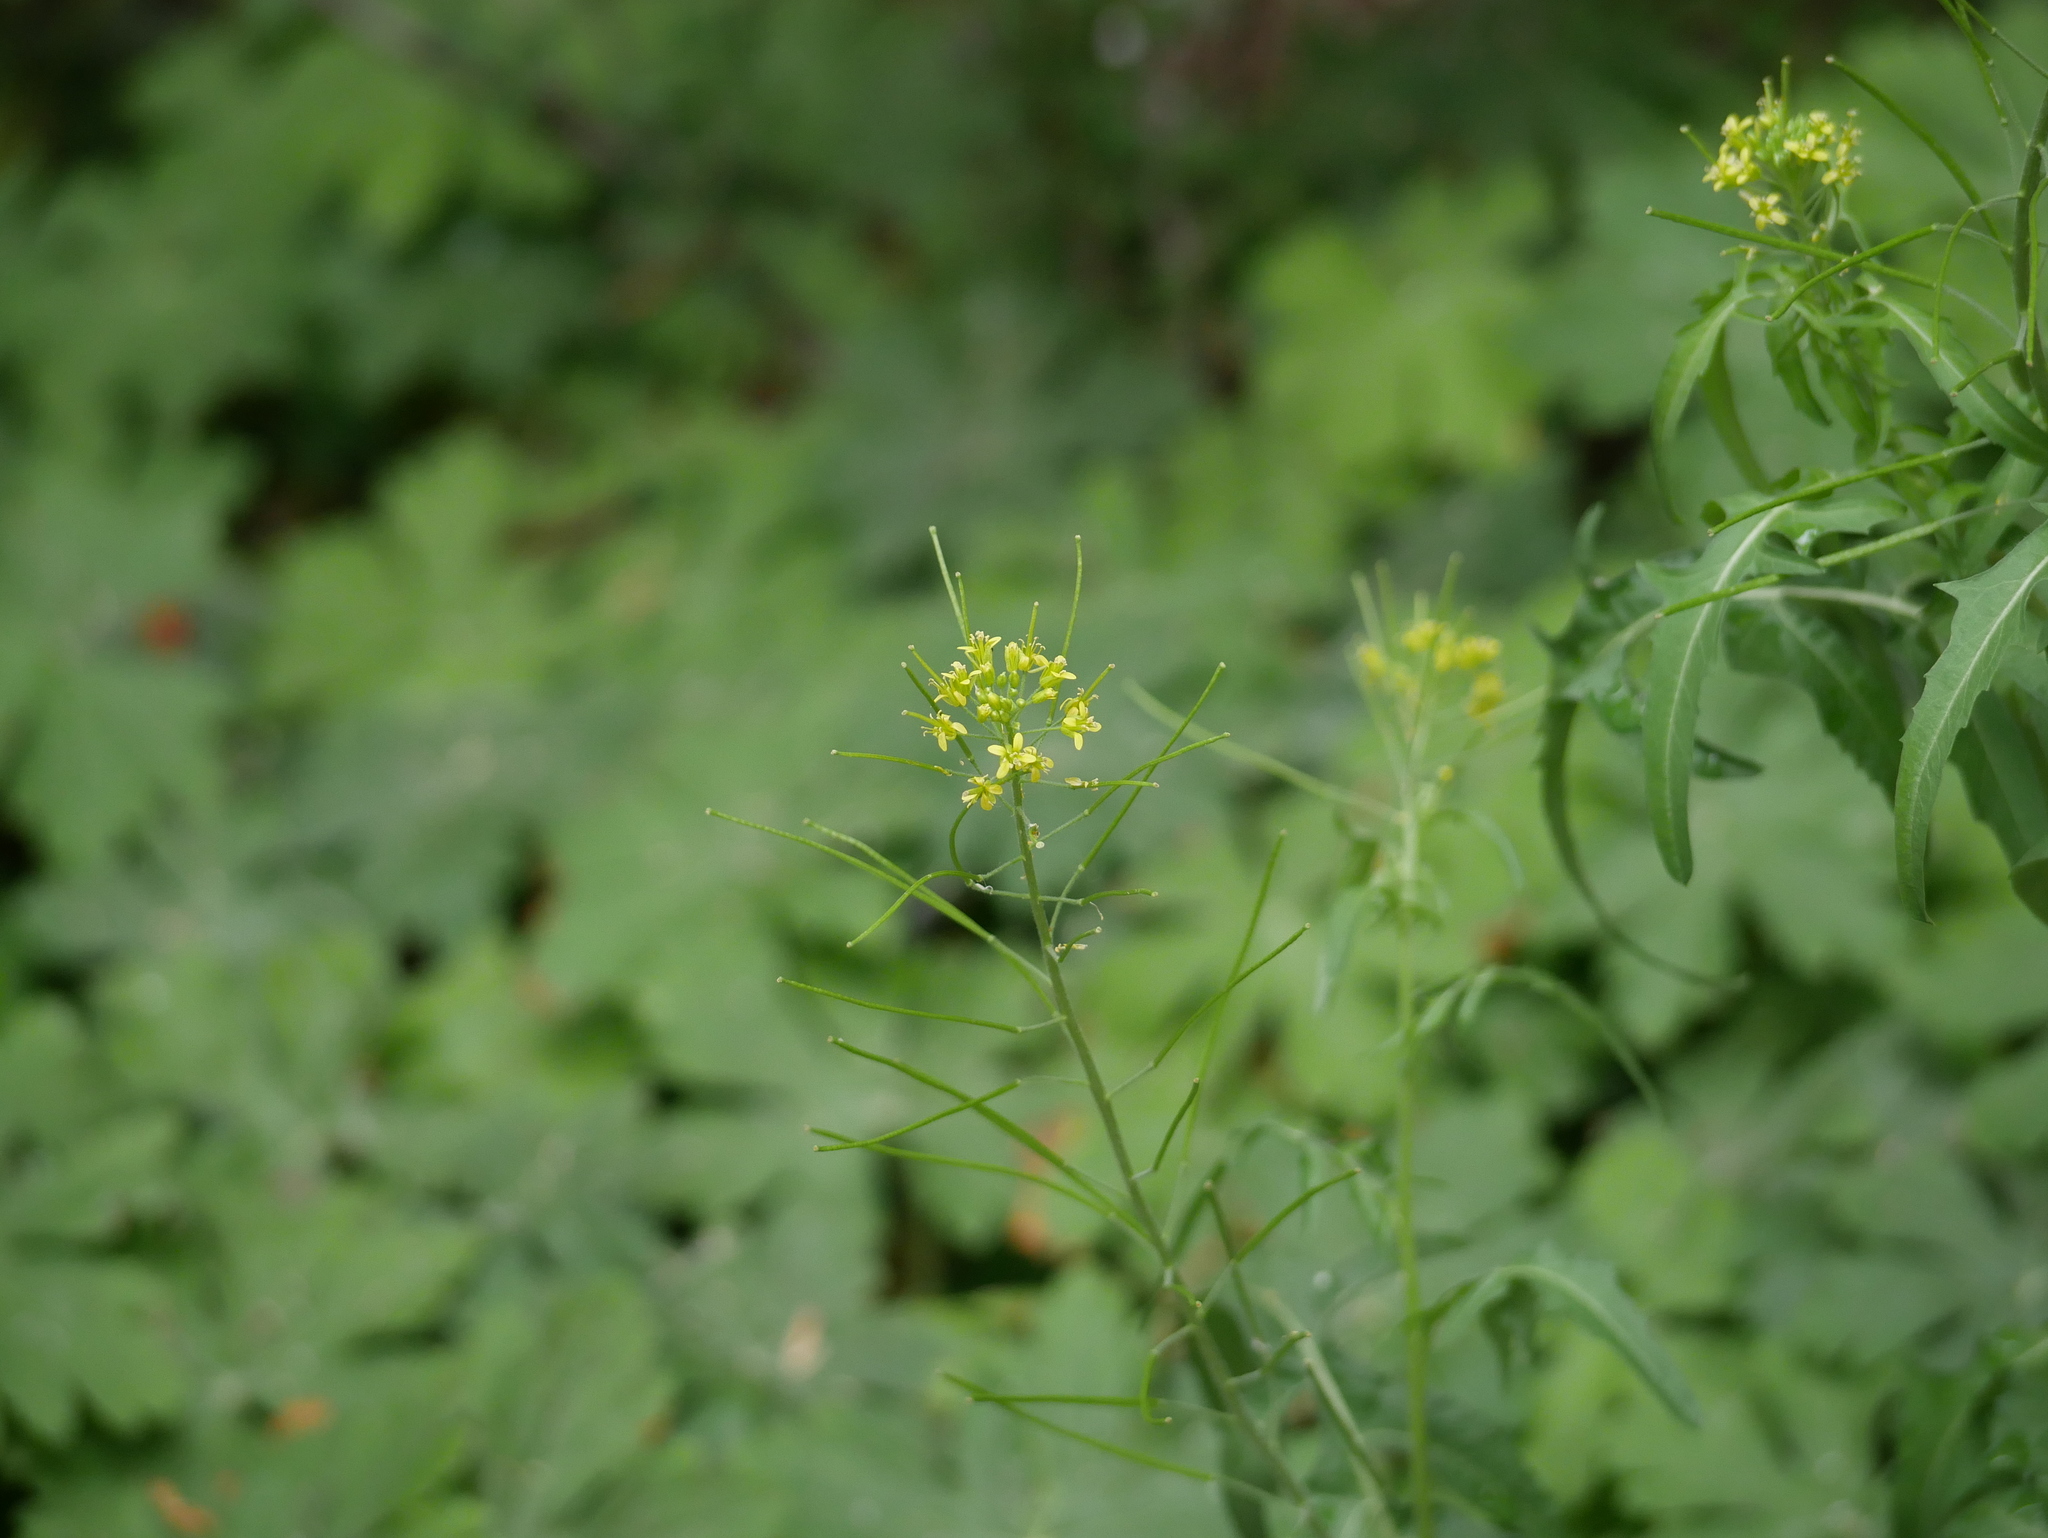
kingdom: Plantae
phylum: Tracheophyta
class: Magnoliopsida
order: Brassicales
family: Brassicaceae
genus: Sisymbrium
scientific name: Sisymbrium irio
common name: London rocket
